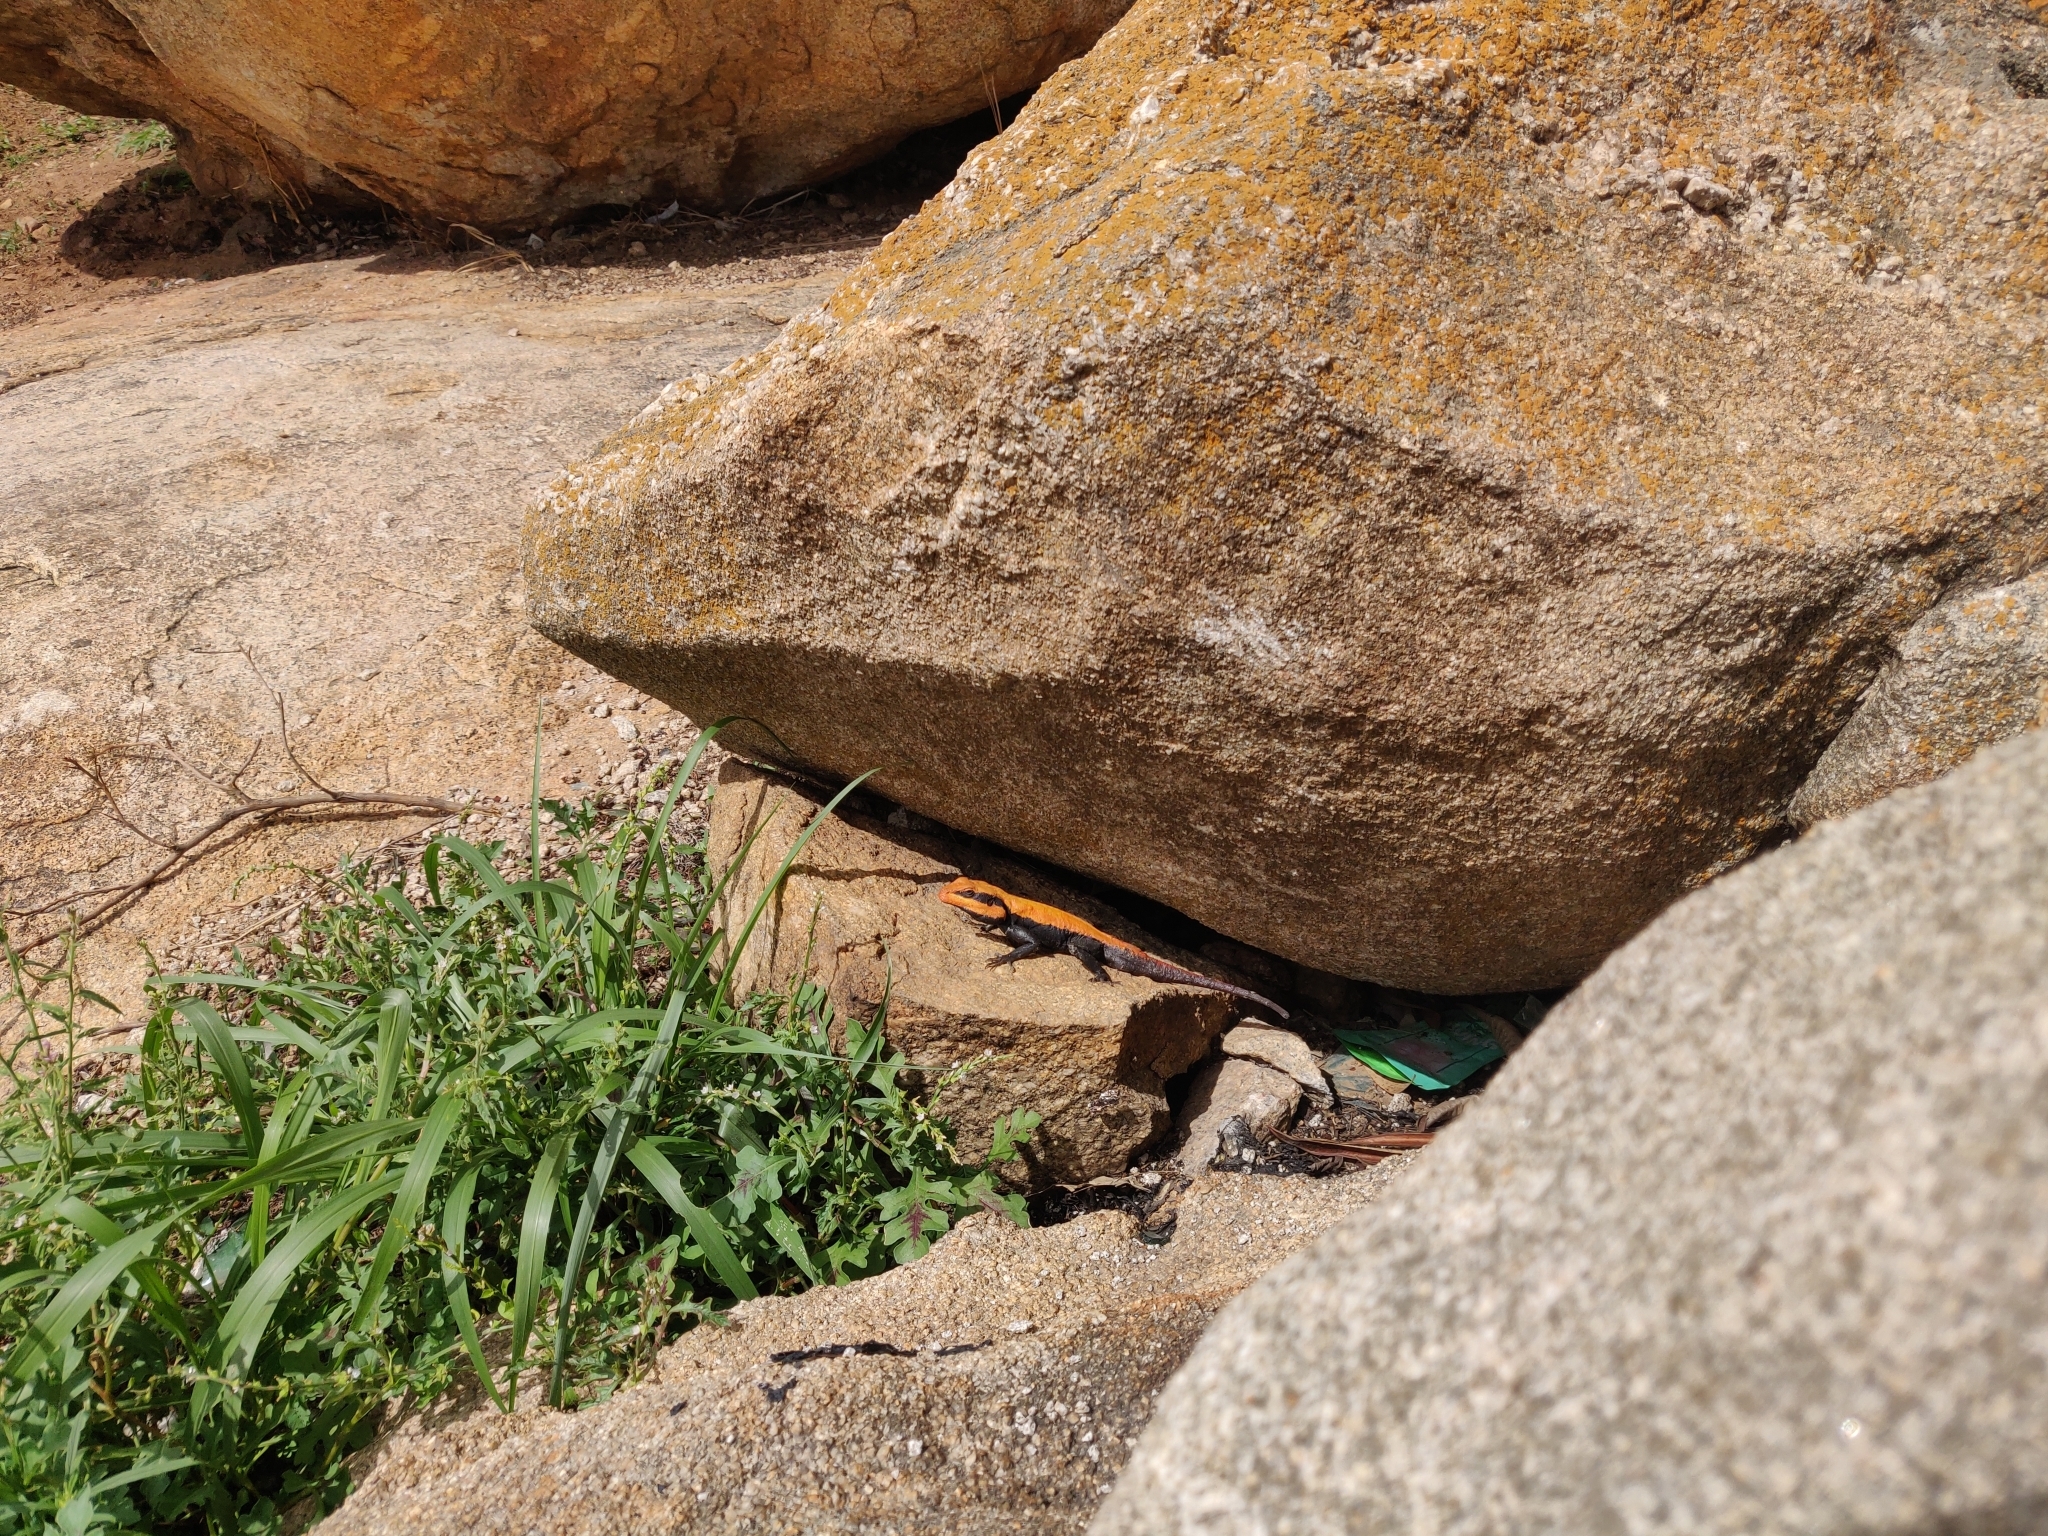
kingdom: Animalia
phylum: Chordata
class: Squamata
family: Agamidae
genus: Psammophilus
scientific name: Psammophilus dorsalis
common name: South indian rock agama
